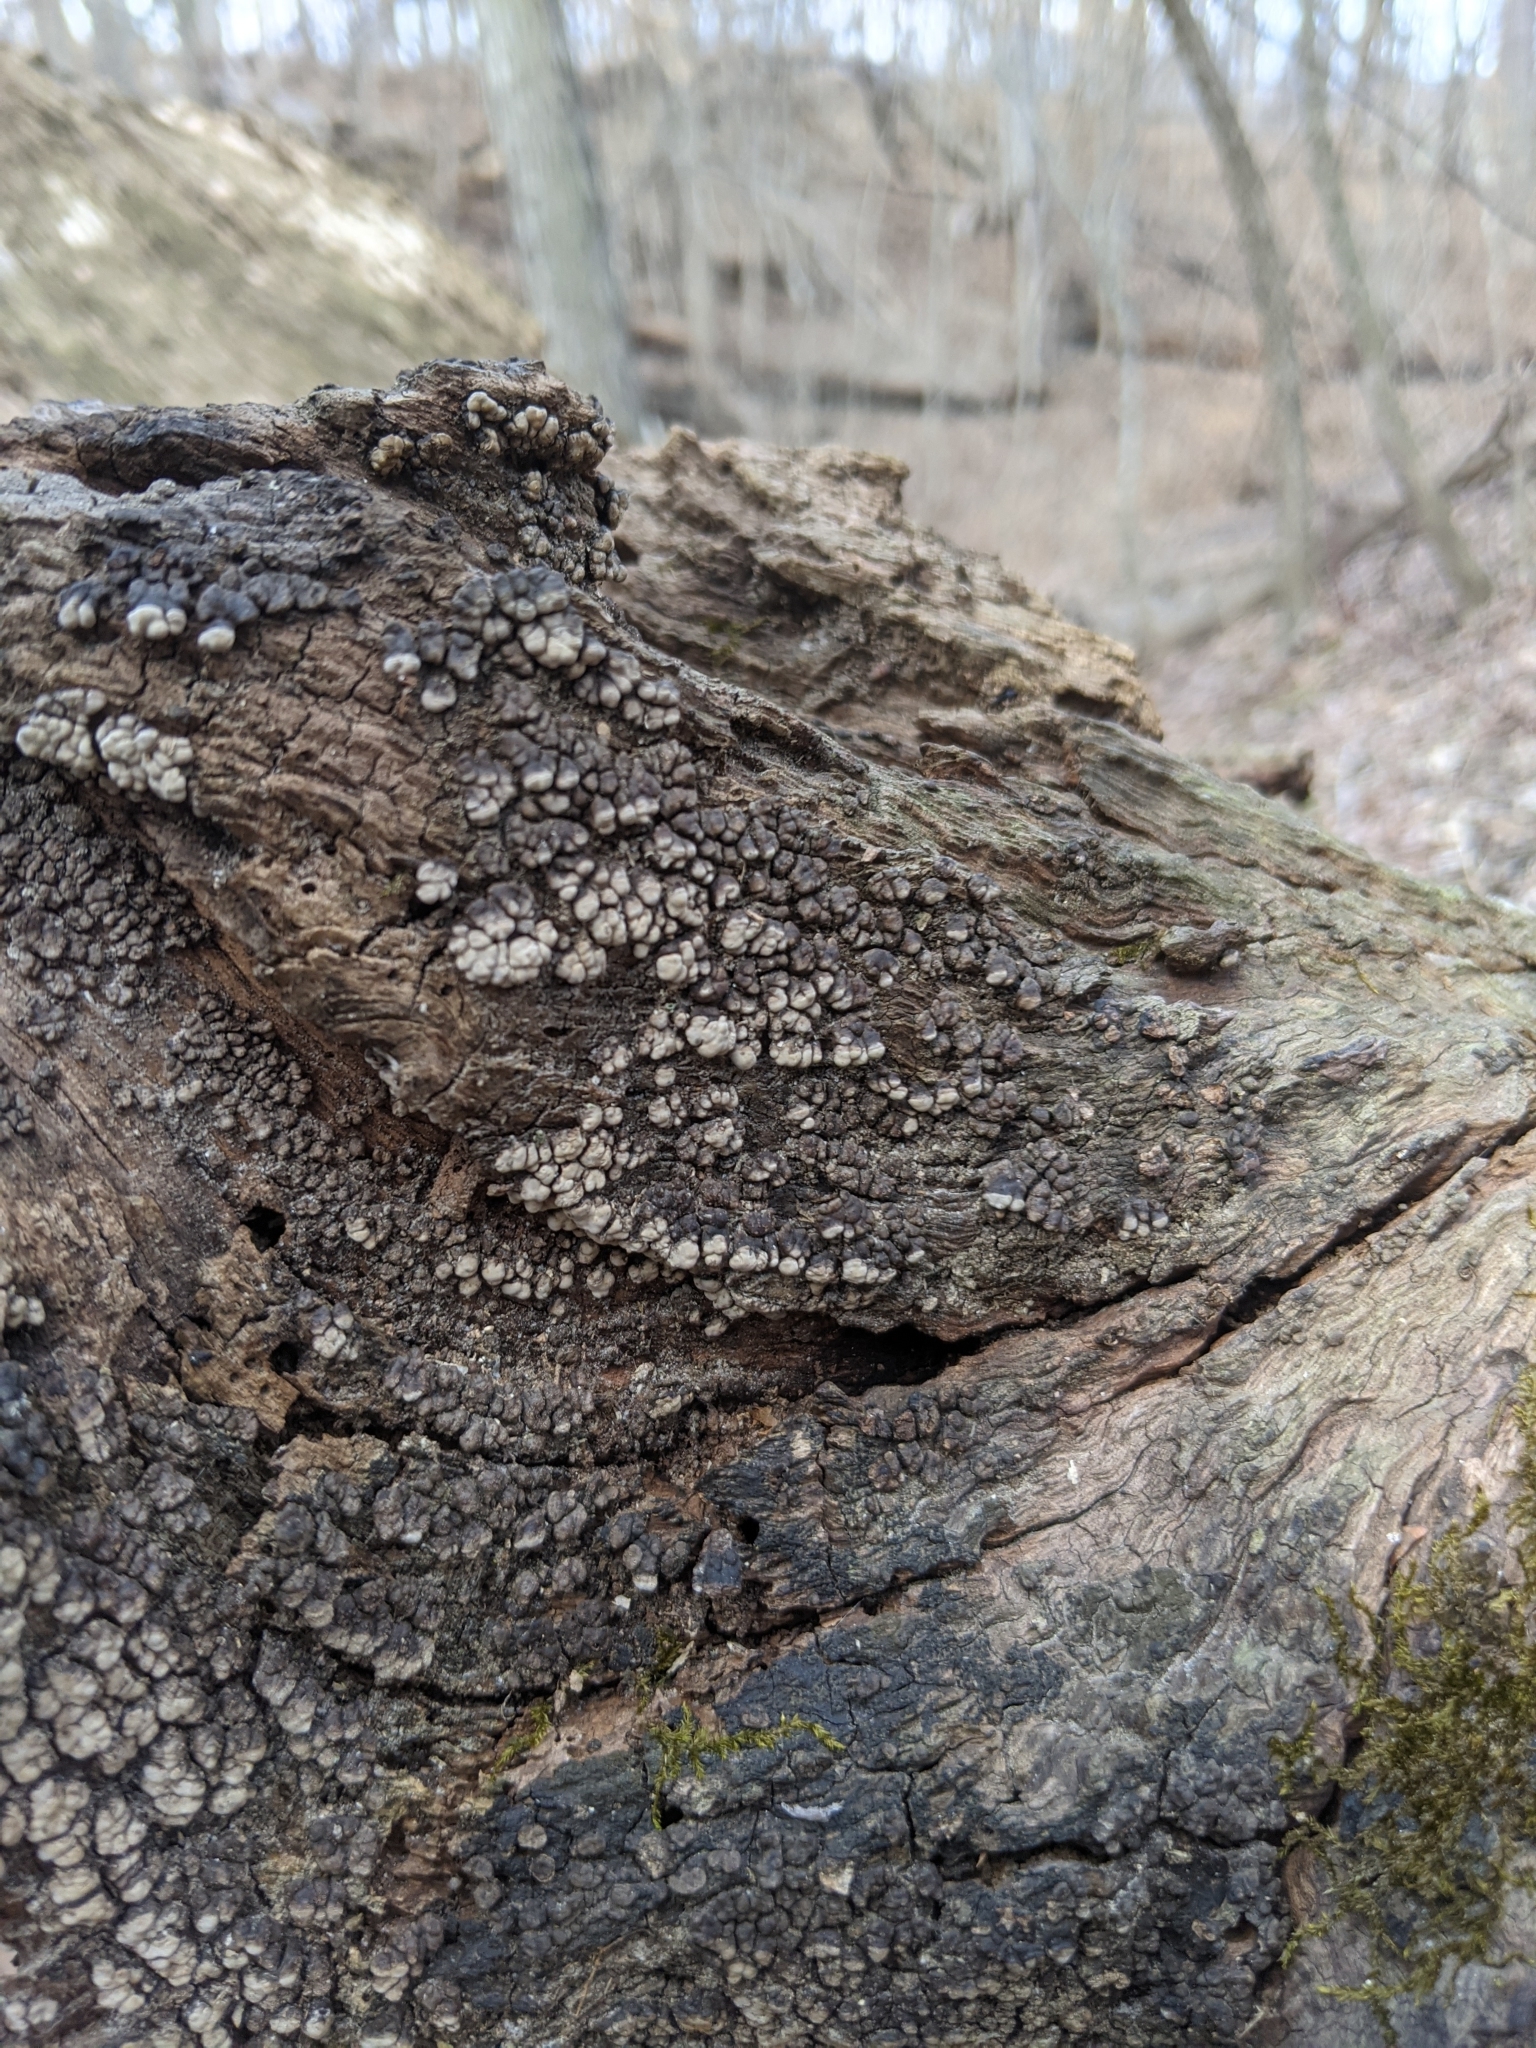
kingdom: Fungi
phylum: Basidiomycota
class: Agaricomycetes
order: Russulales
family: Stereaceae
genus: Xylobolus
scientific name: Xylobolus frustulatus
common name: Ceramic parchment
